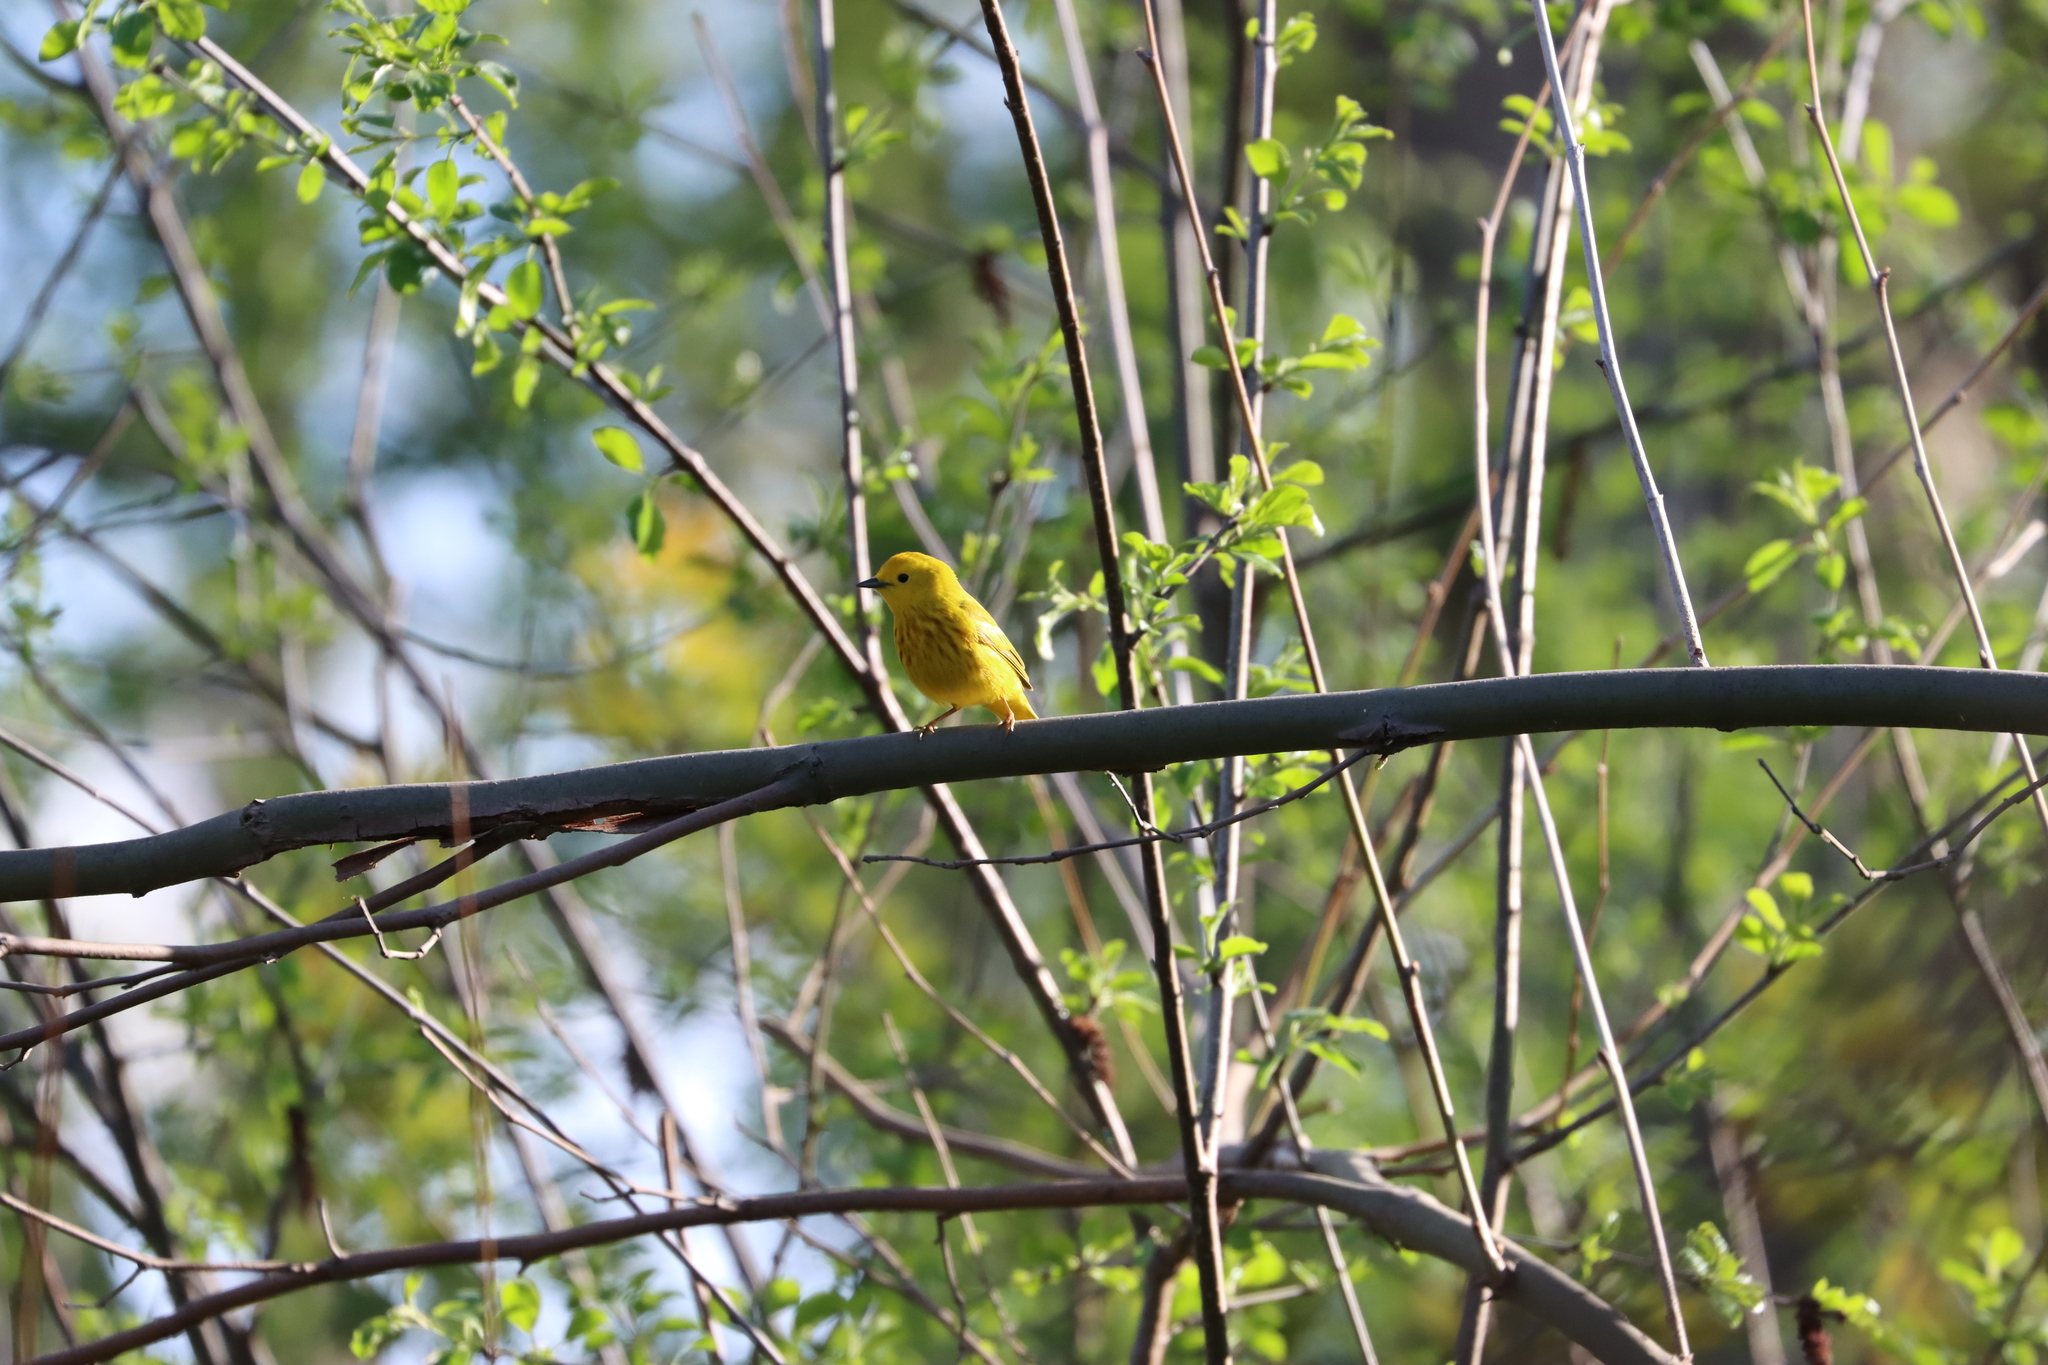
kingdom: Animalia
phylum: Chordata
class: Aves
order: Passeriformes
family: Parulidae
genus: Setophaga
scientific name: Setophaga petechia
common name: Yellow warbler
